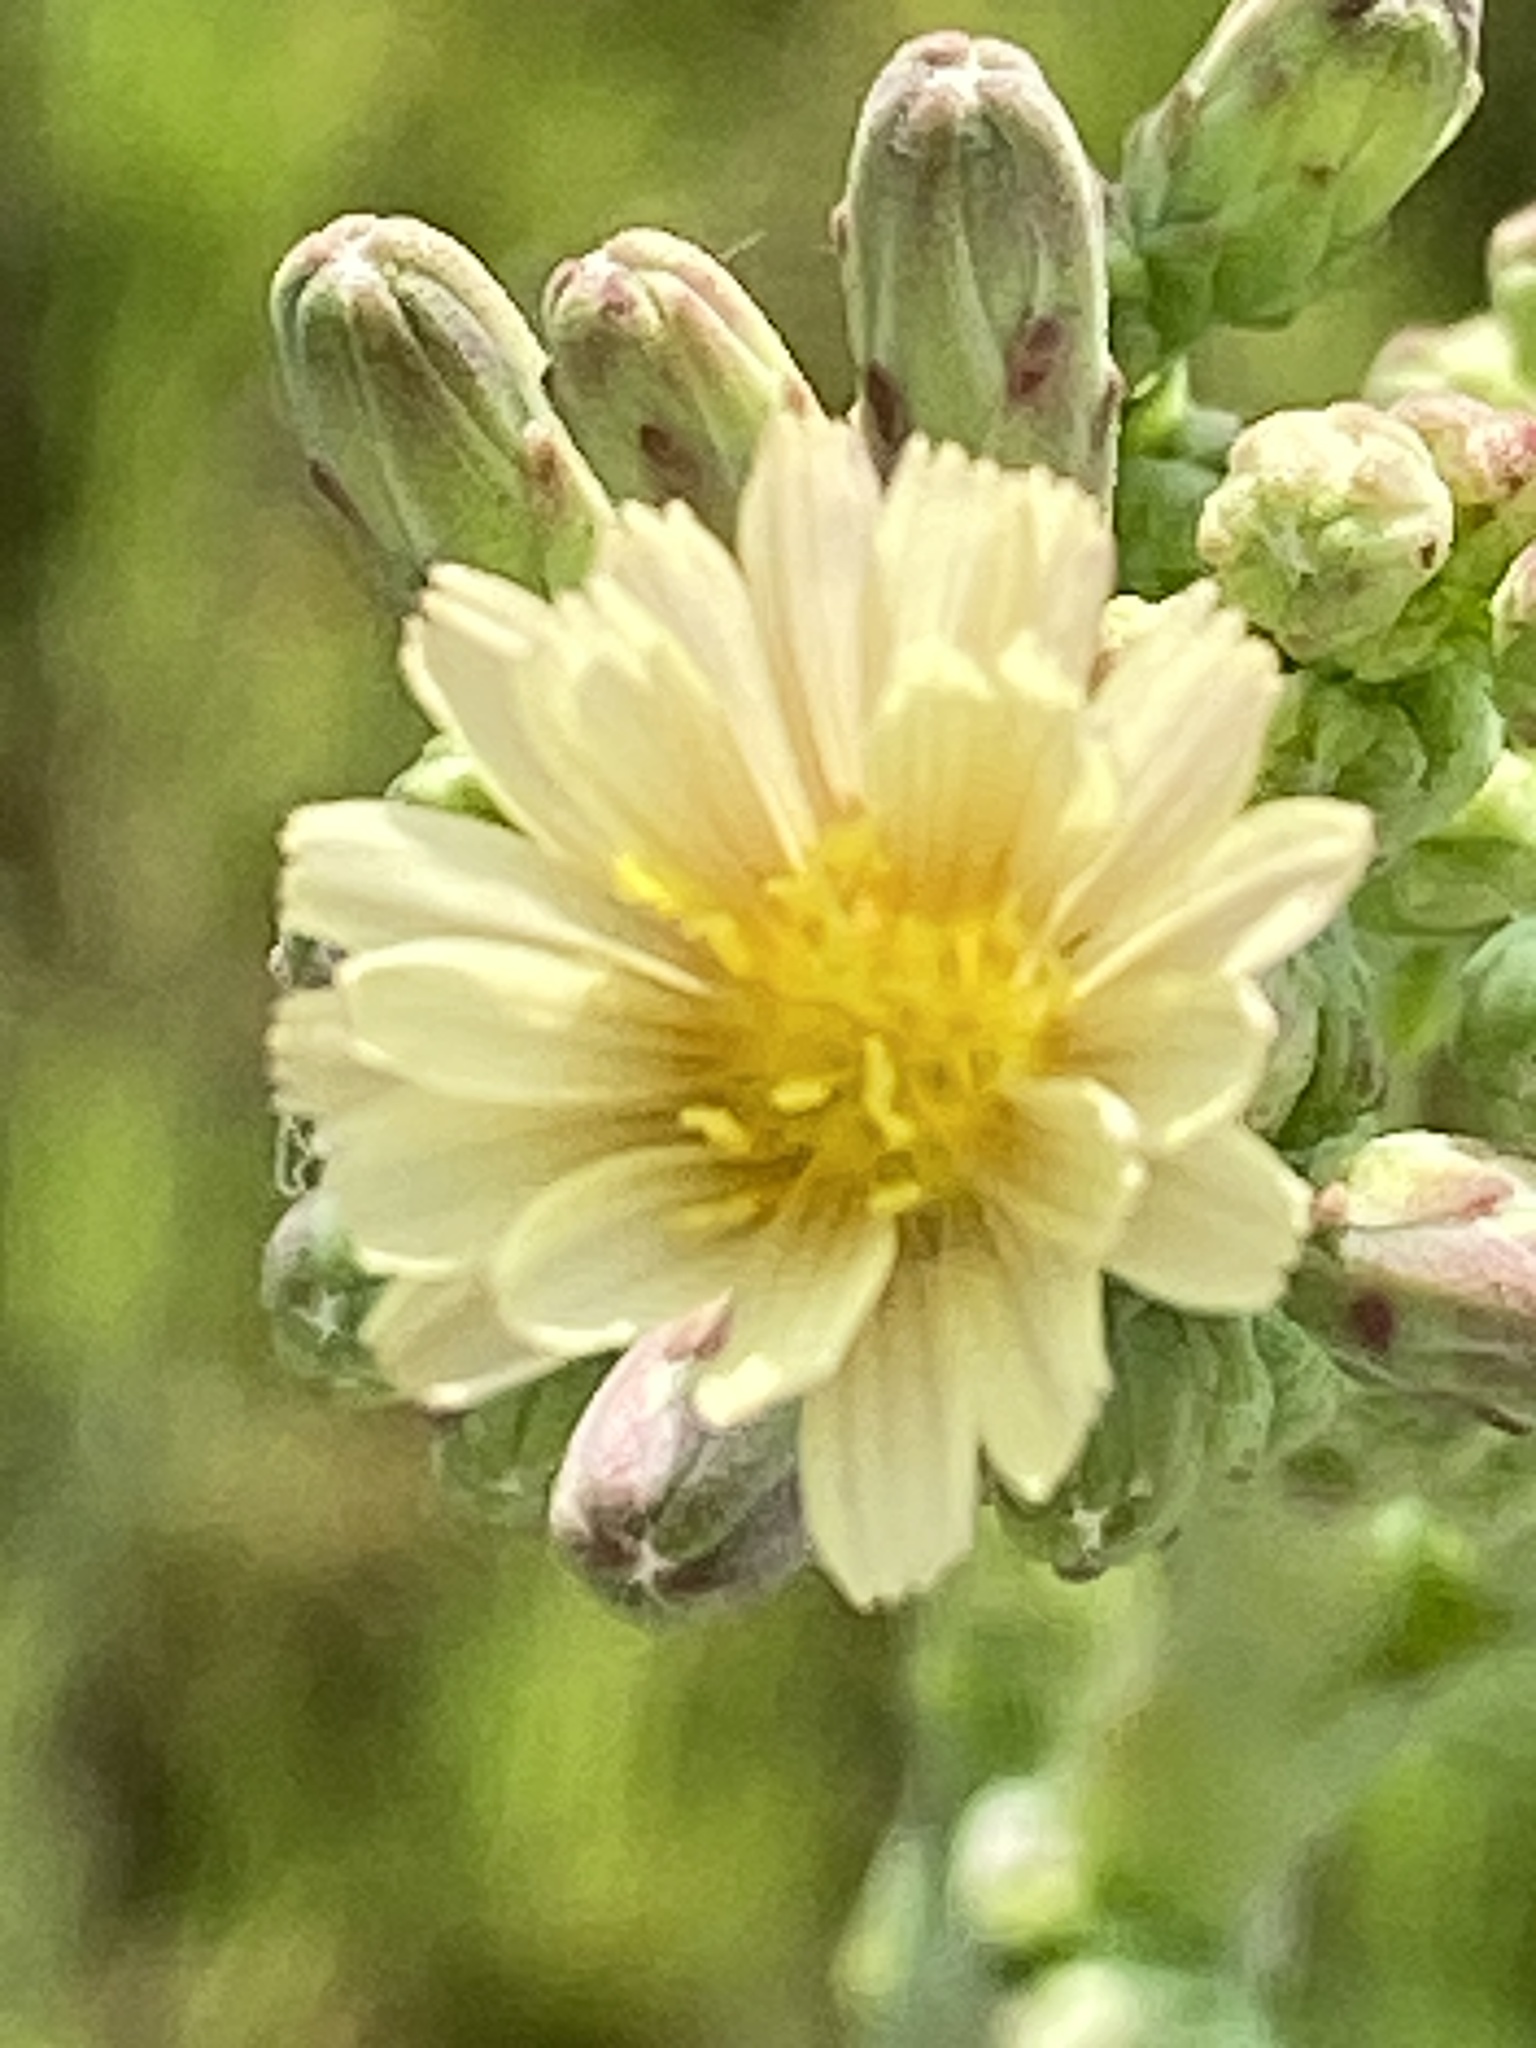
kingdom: Plantae
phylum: Tracheophyta
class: Magnoliopsida
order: Asterales
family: Asteraceae
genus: Lactuca
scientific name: Lactuca serriola
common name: Prickly lettuce
